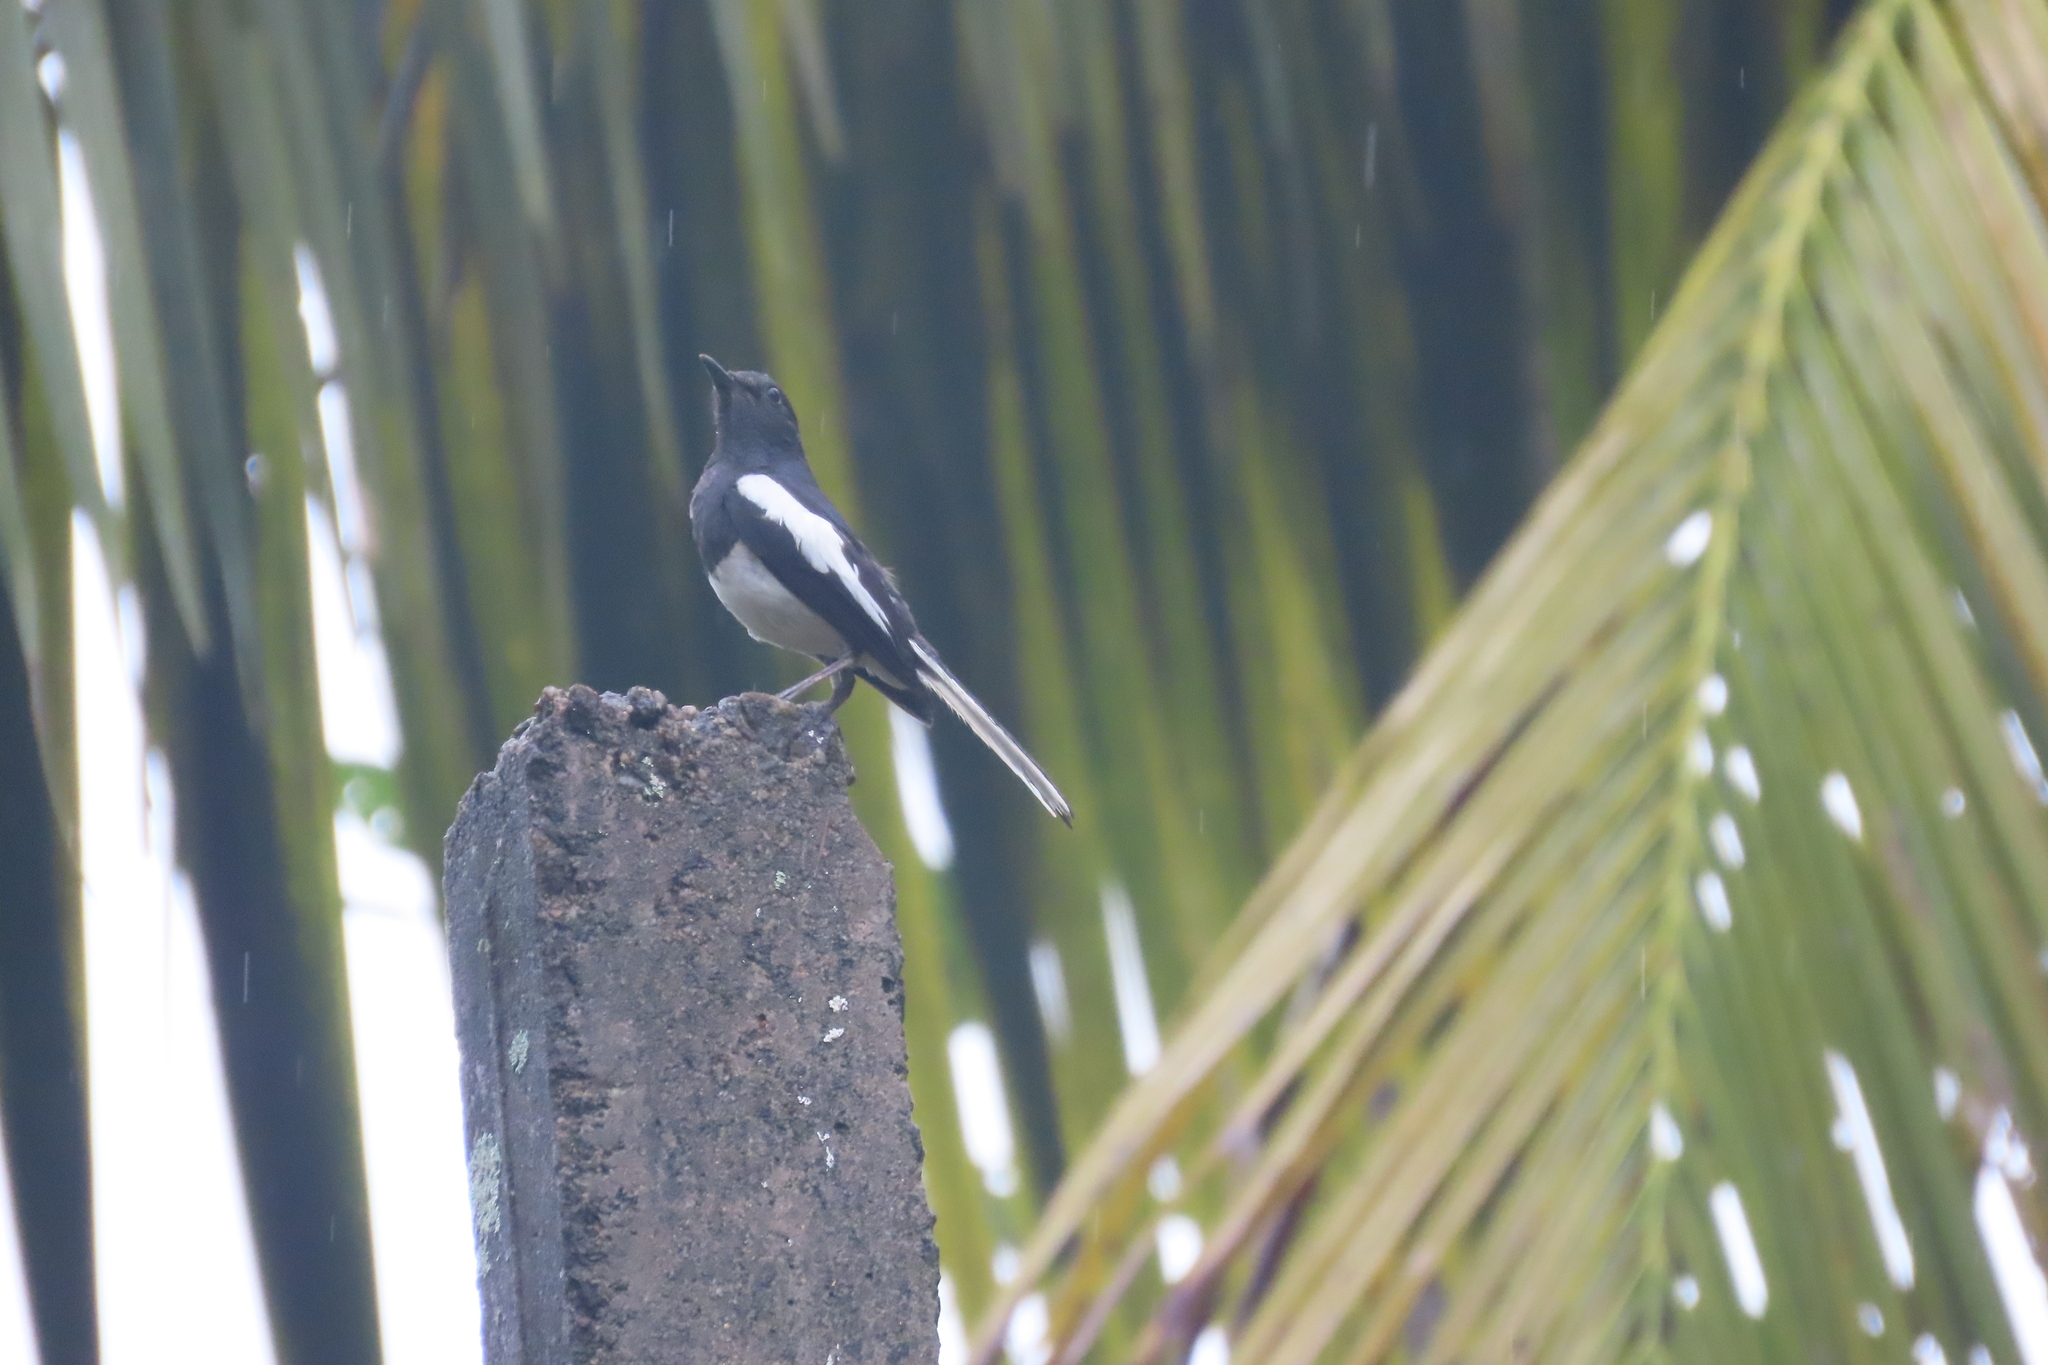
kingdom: Animalia
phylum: Chordata
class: Aves
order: Passeriformes
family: Muscicapidae
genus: Copsychus
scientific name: Copsychus saularis
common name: Oriental magpie-robin
